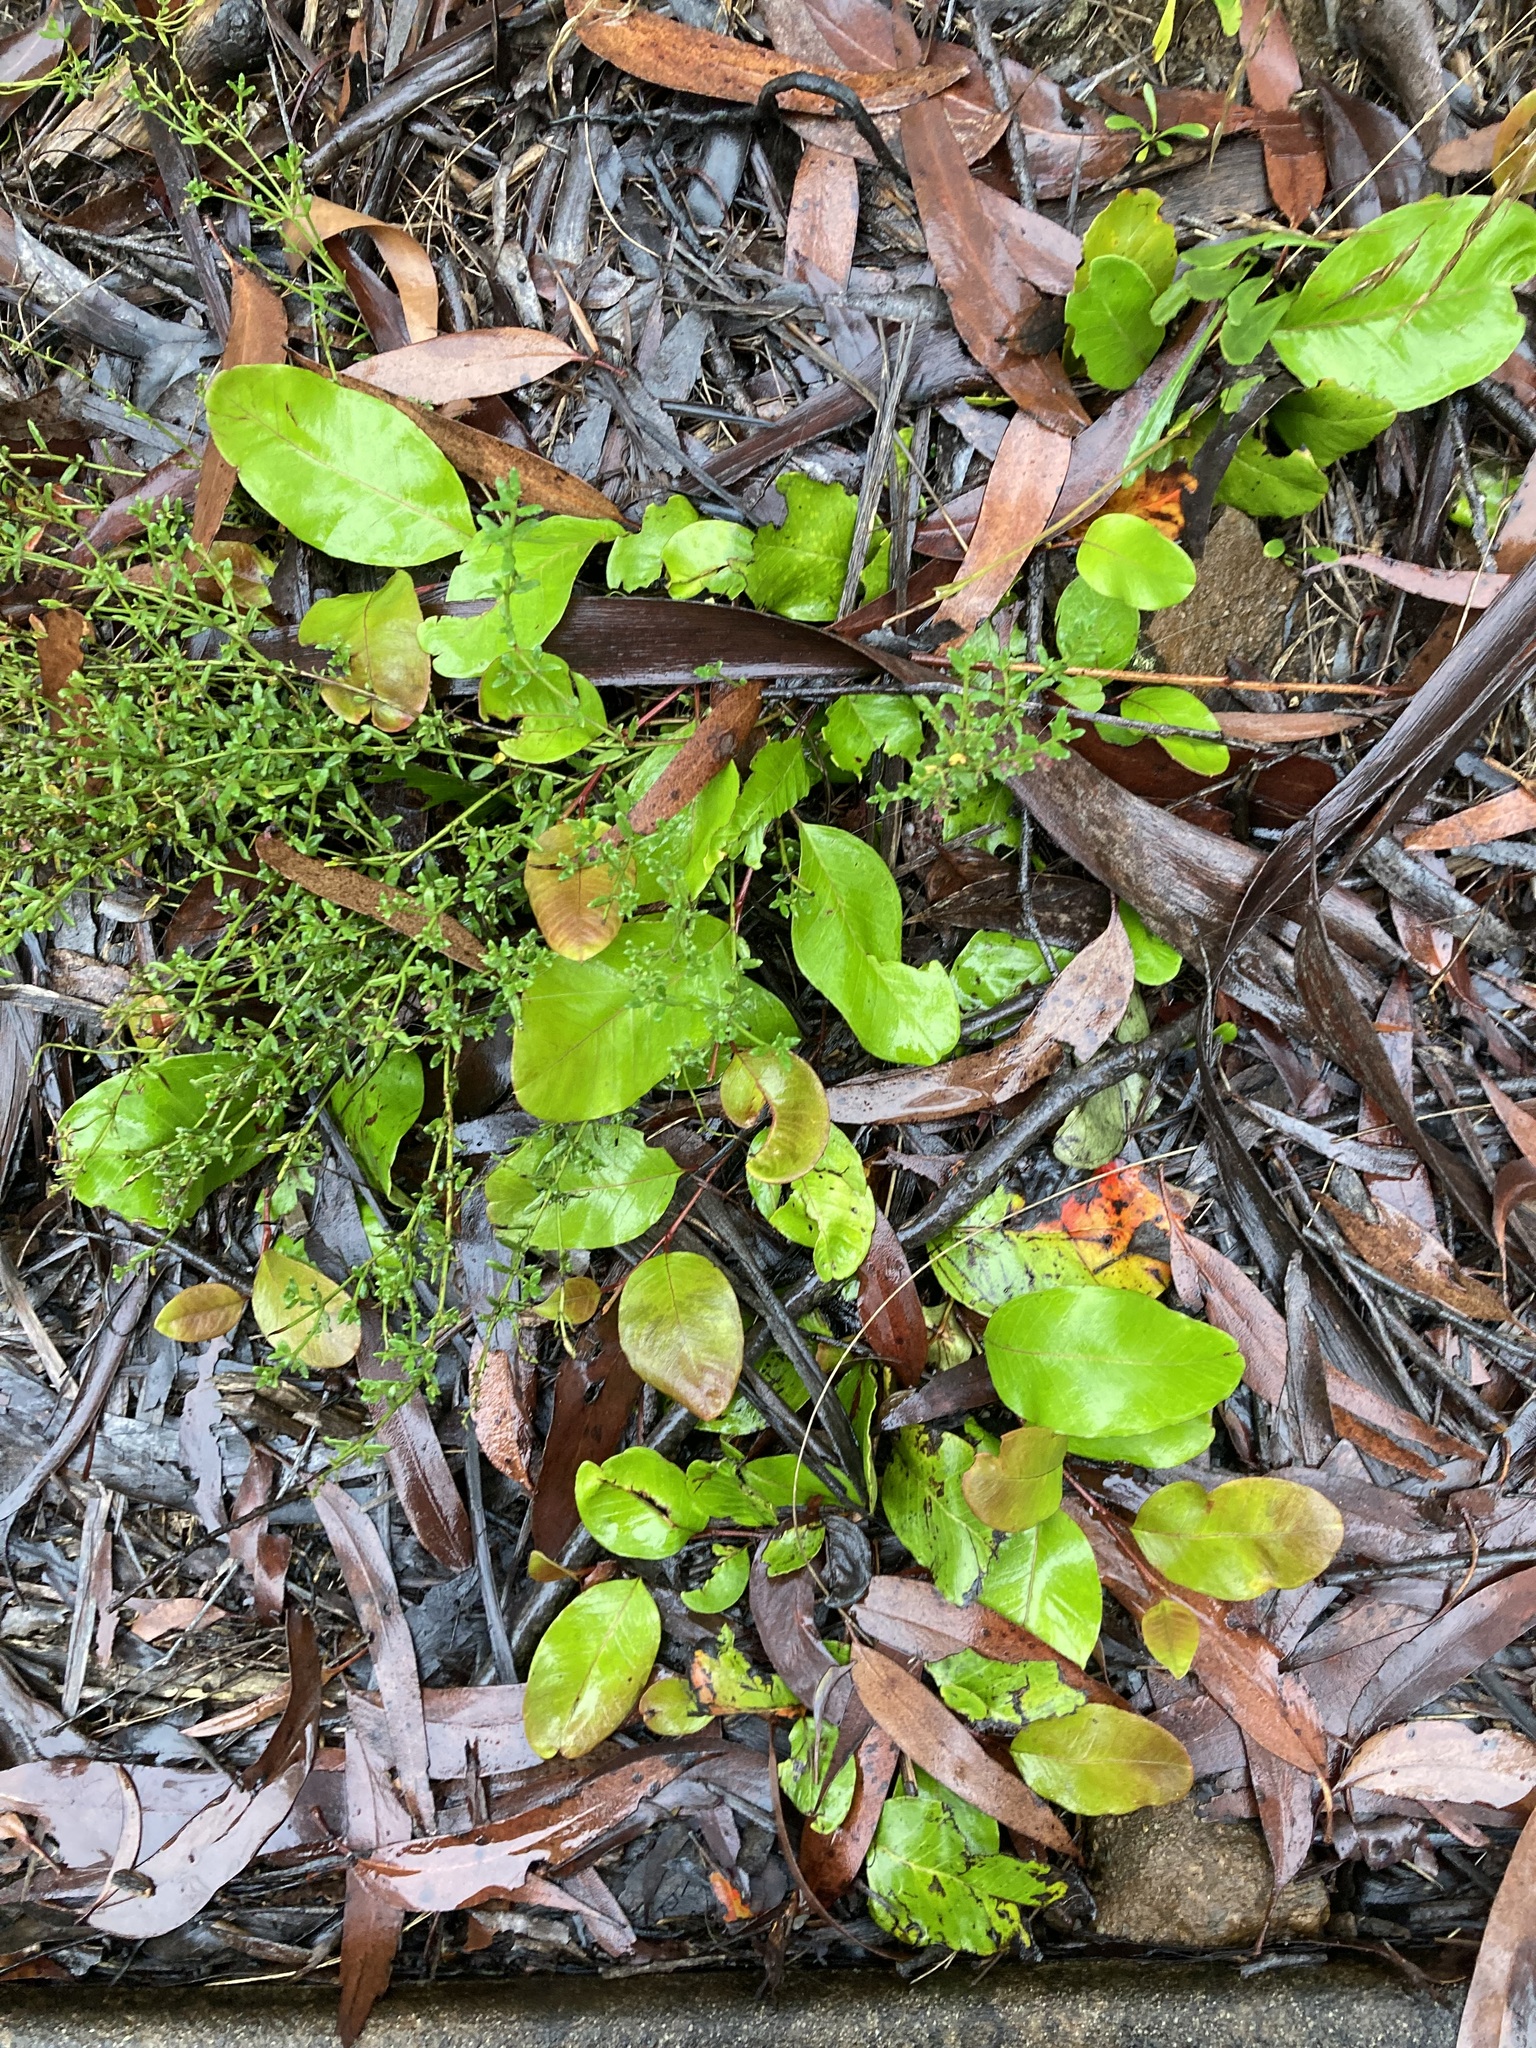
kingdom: Plantae
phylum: Tracheophyta
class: Magnoliopsida
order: Proteales
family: Proteaceae
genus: Grevillea
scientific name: Grevillea laurifolia
